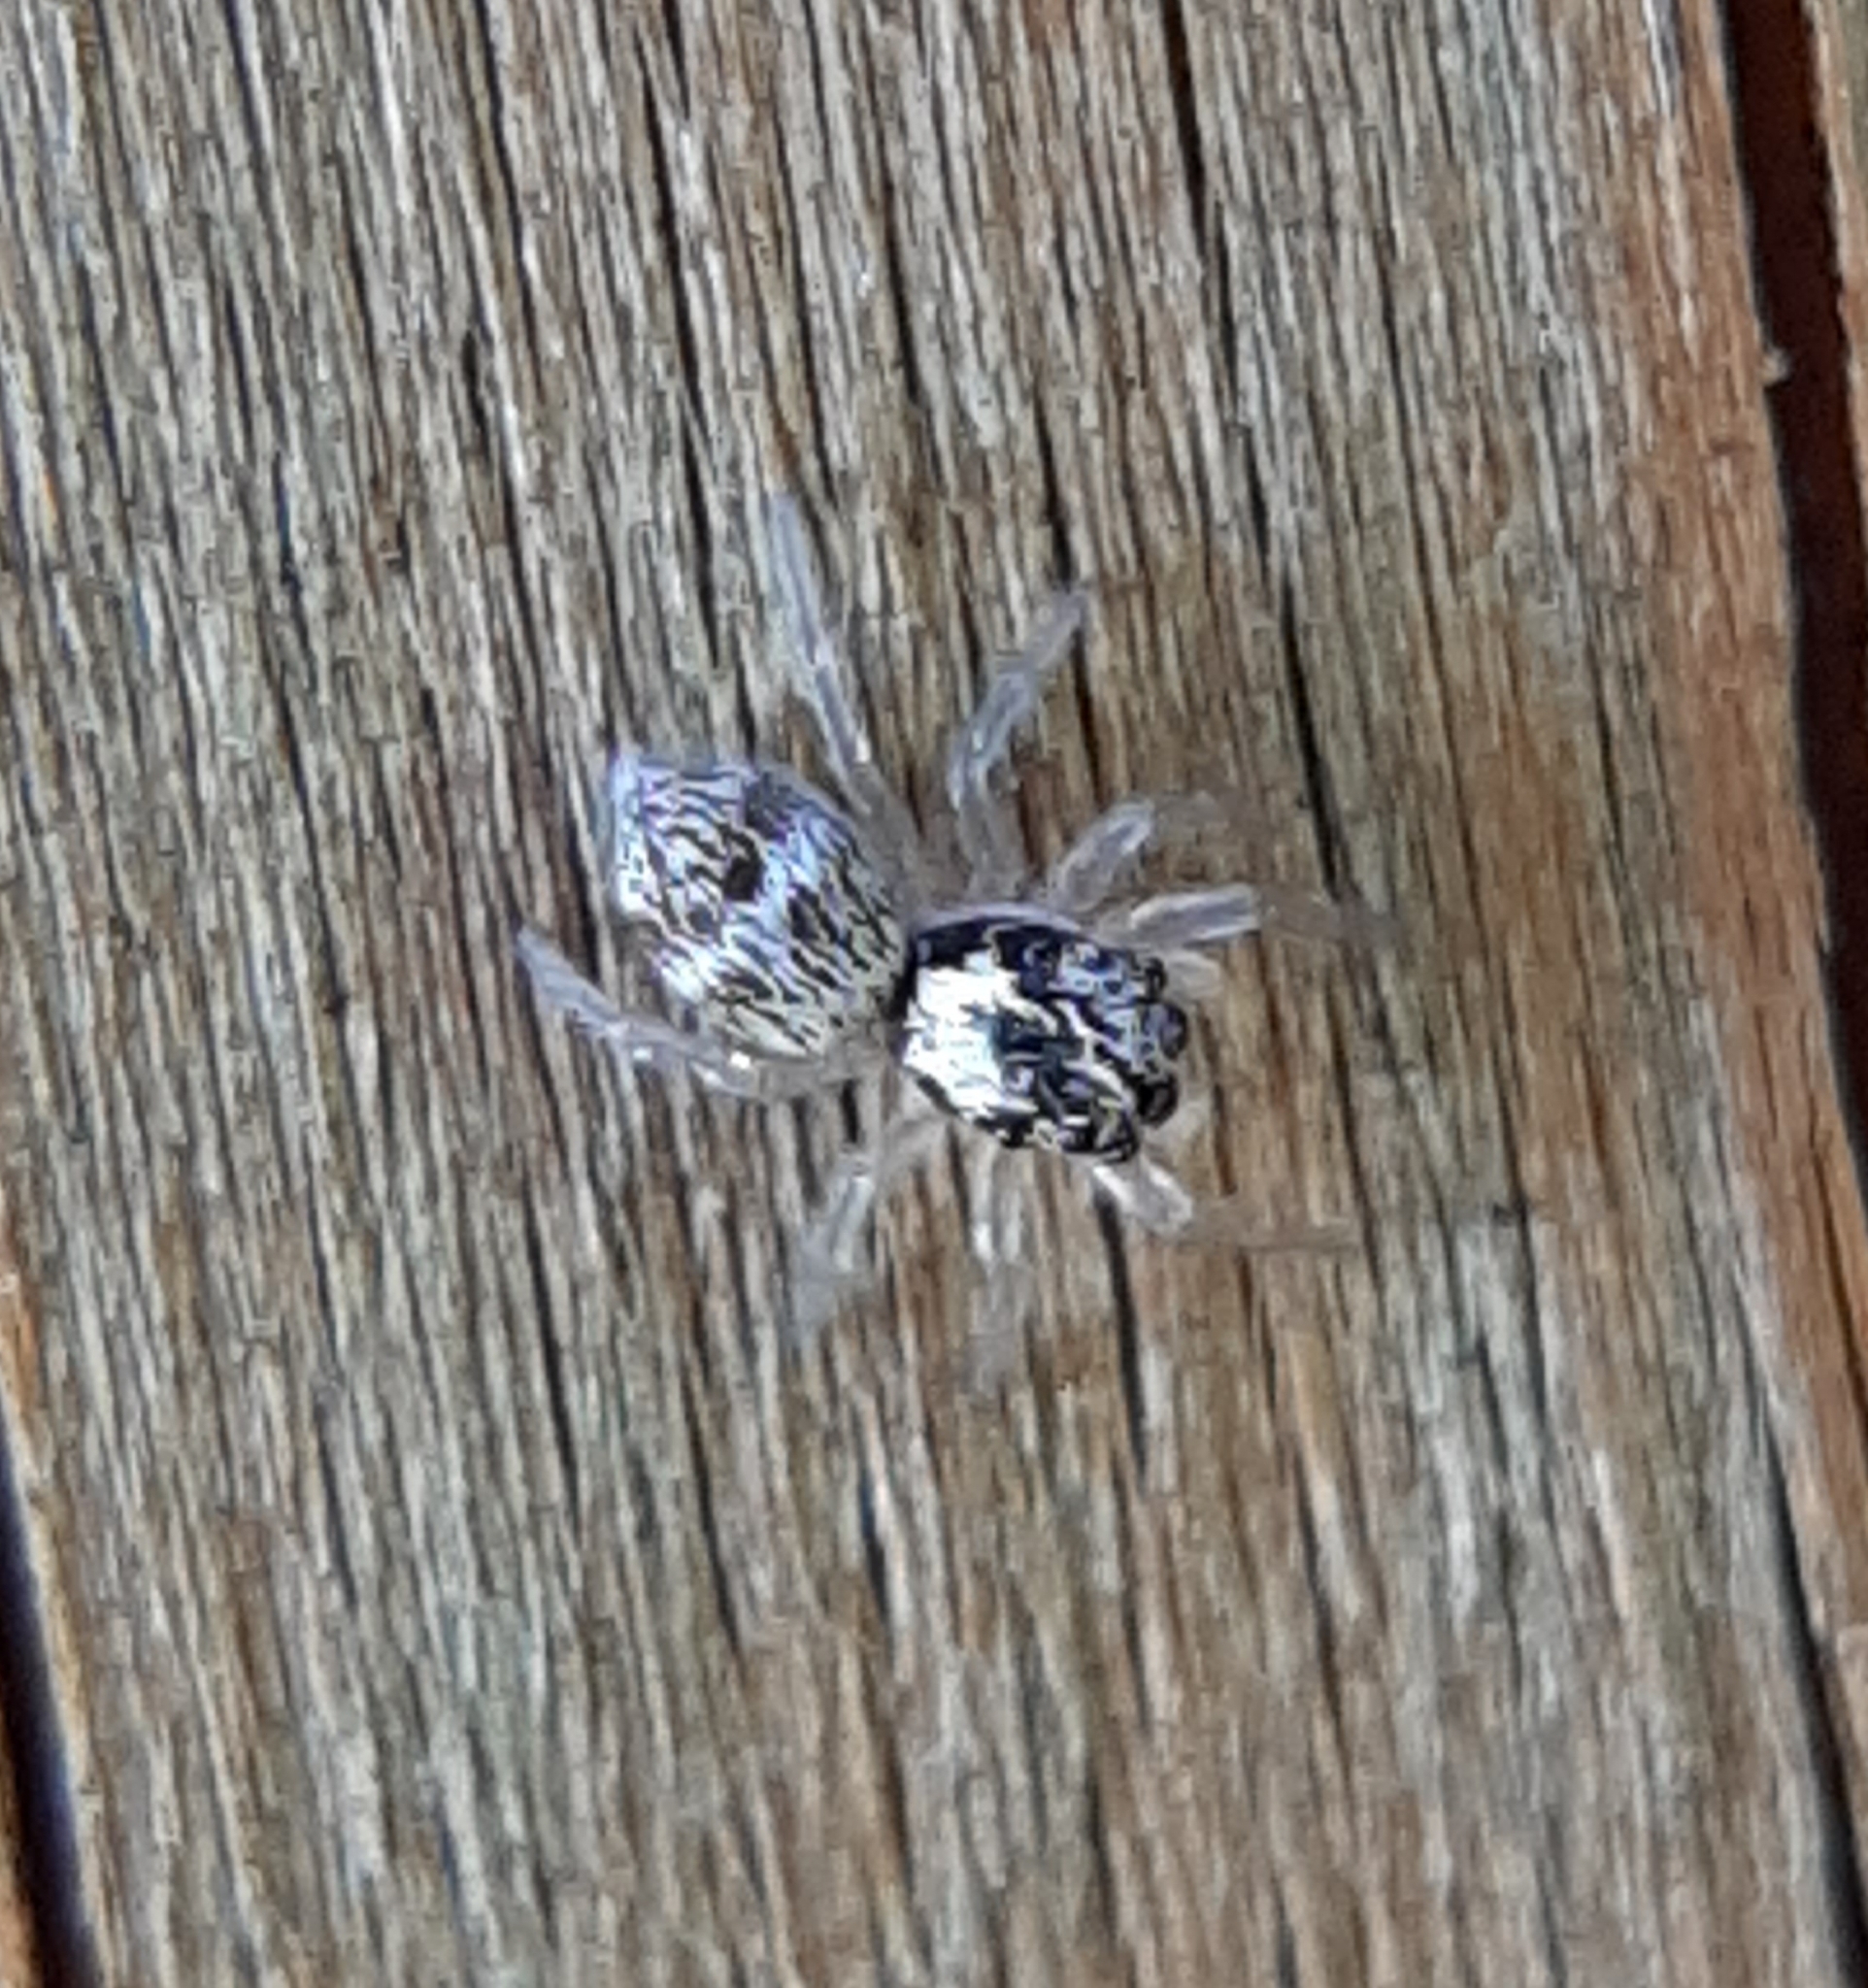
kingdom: Animalia
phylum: Arthropoda
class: Arachnida
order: Araneae
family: Salticidae
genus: Salticus
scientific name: Salticus scenicus
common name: Zebra jumper
